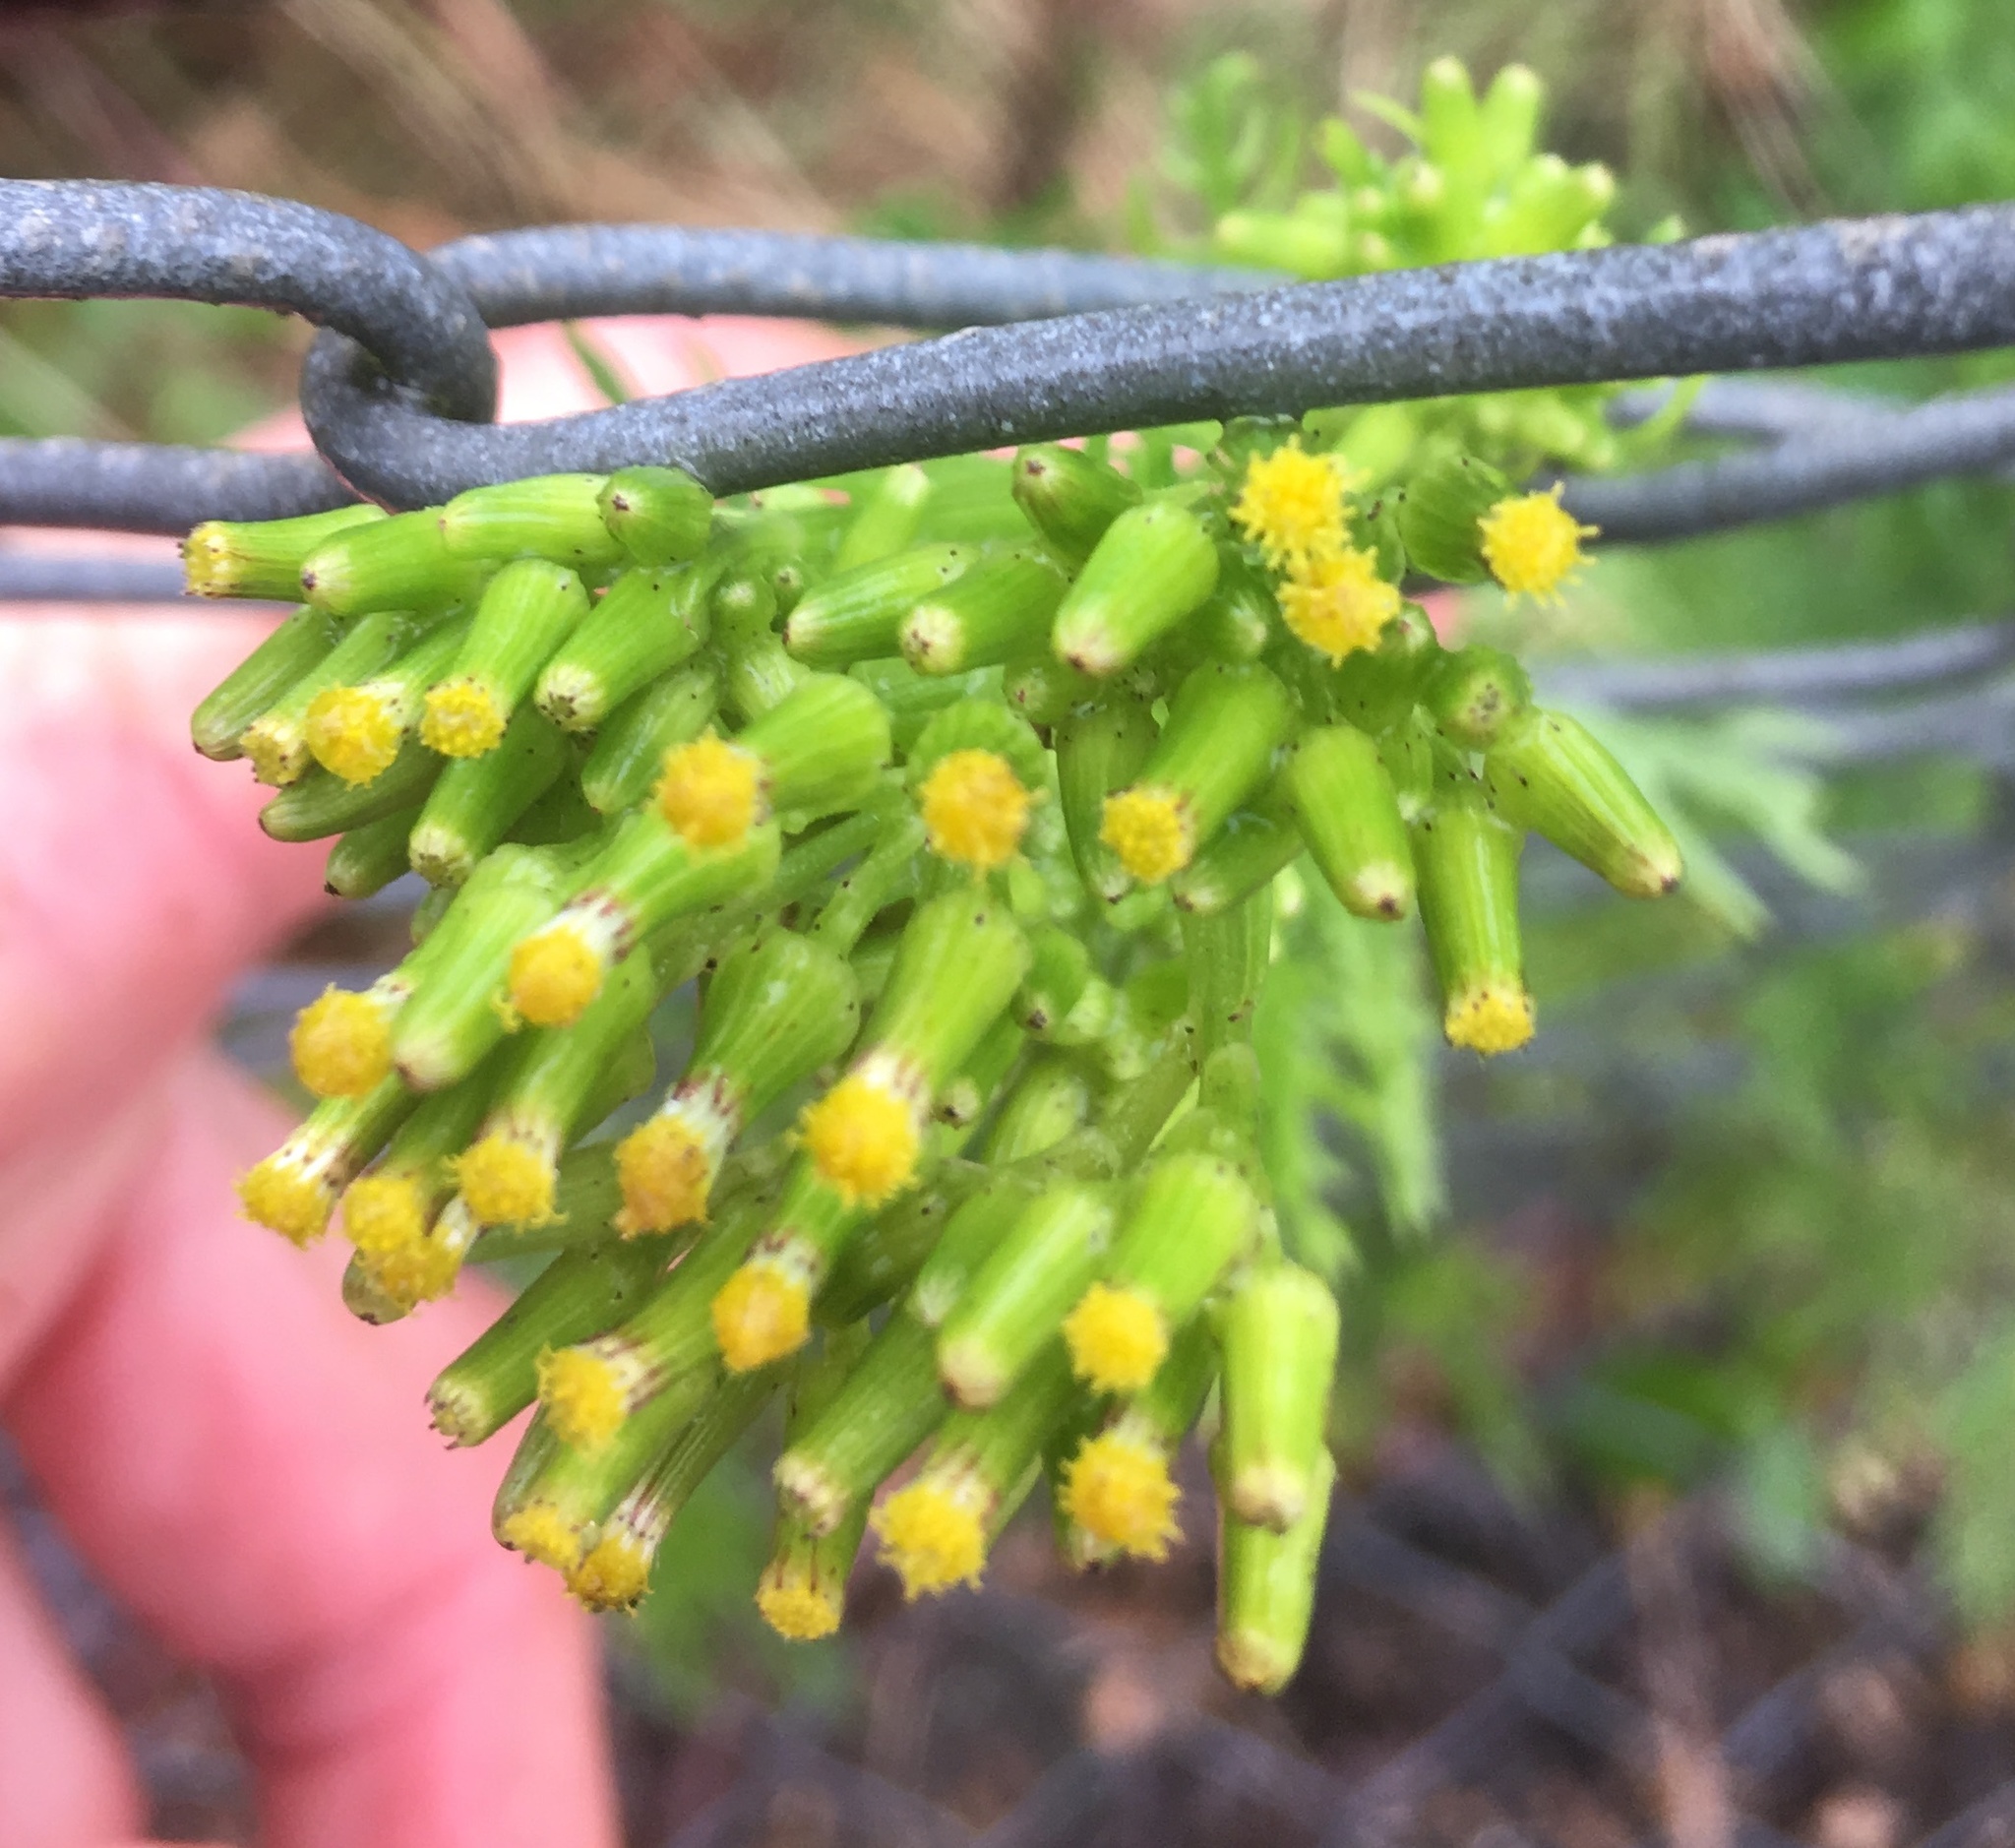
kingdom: Plantae
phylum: Tracheophyta
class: Magnoliopsida
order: Asterales
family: Asteraceae
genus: Senecio
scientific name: Senecio esleri
